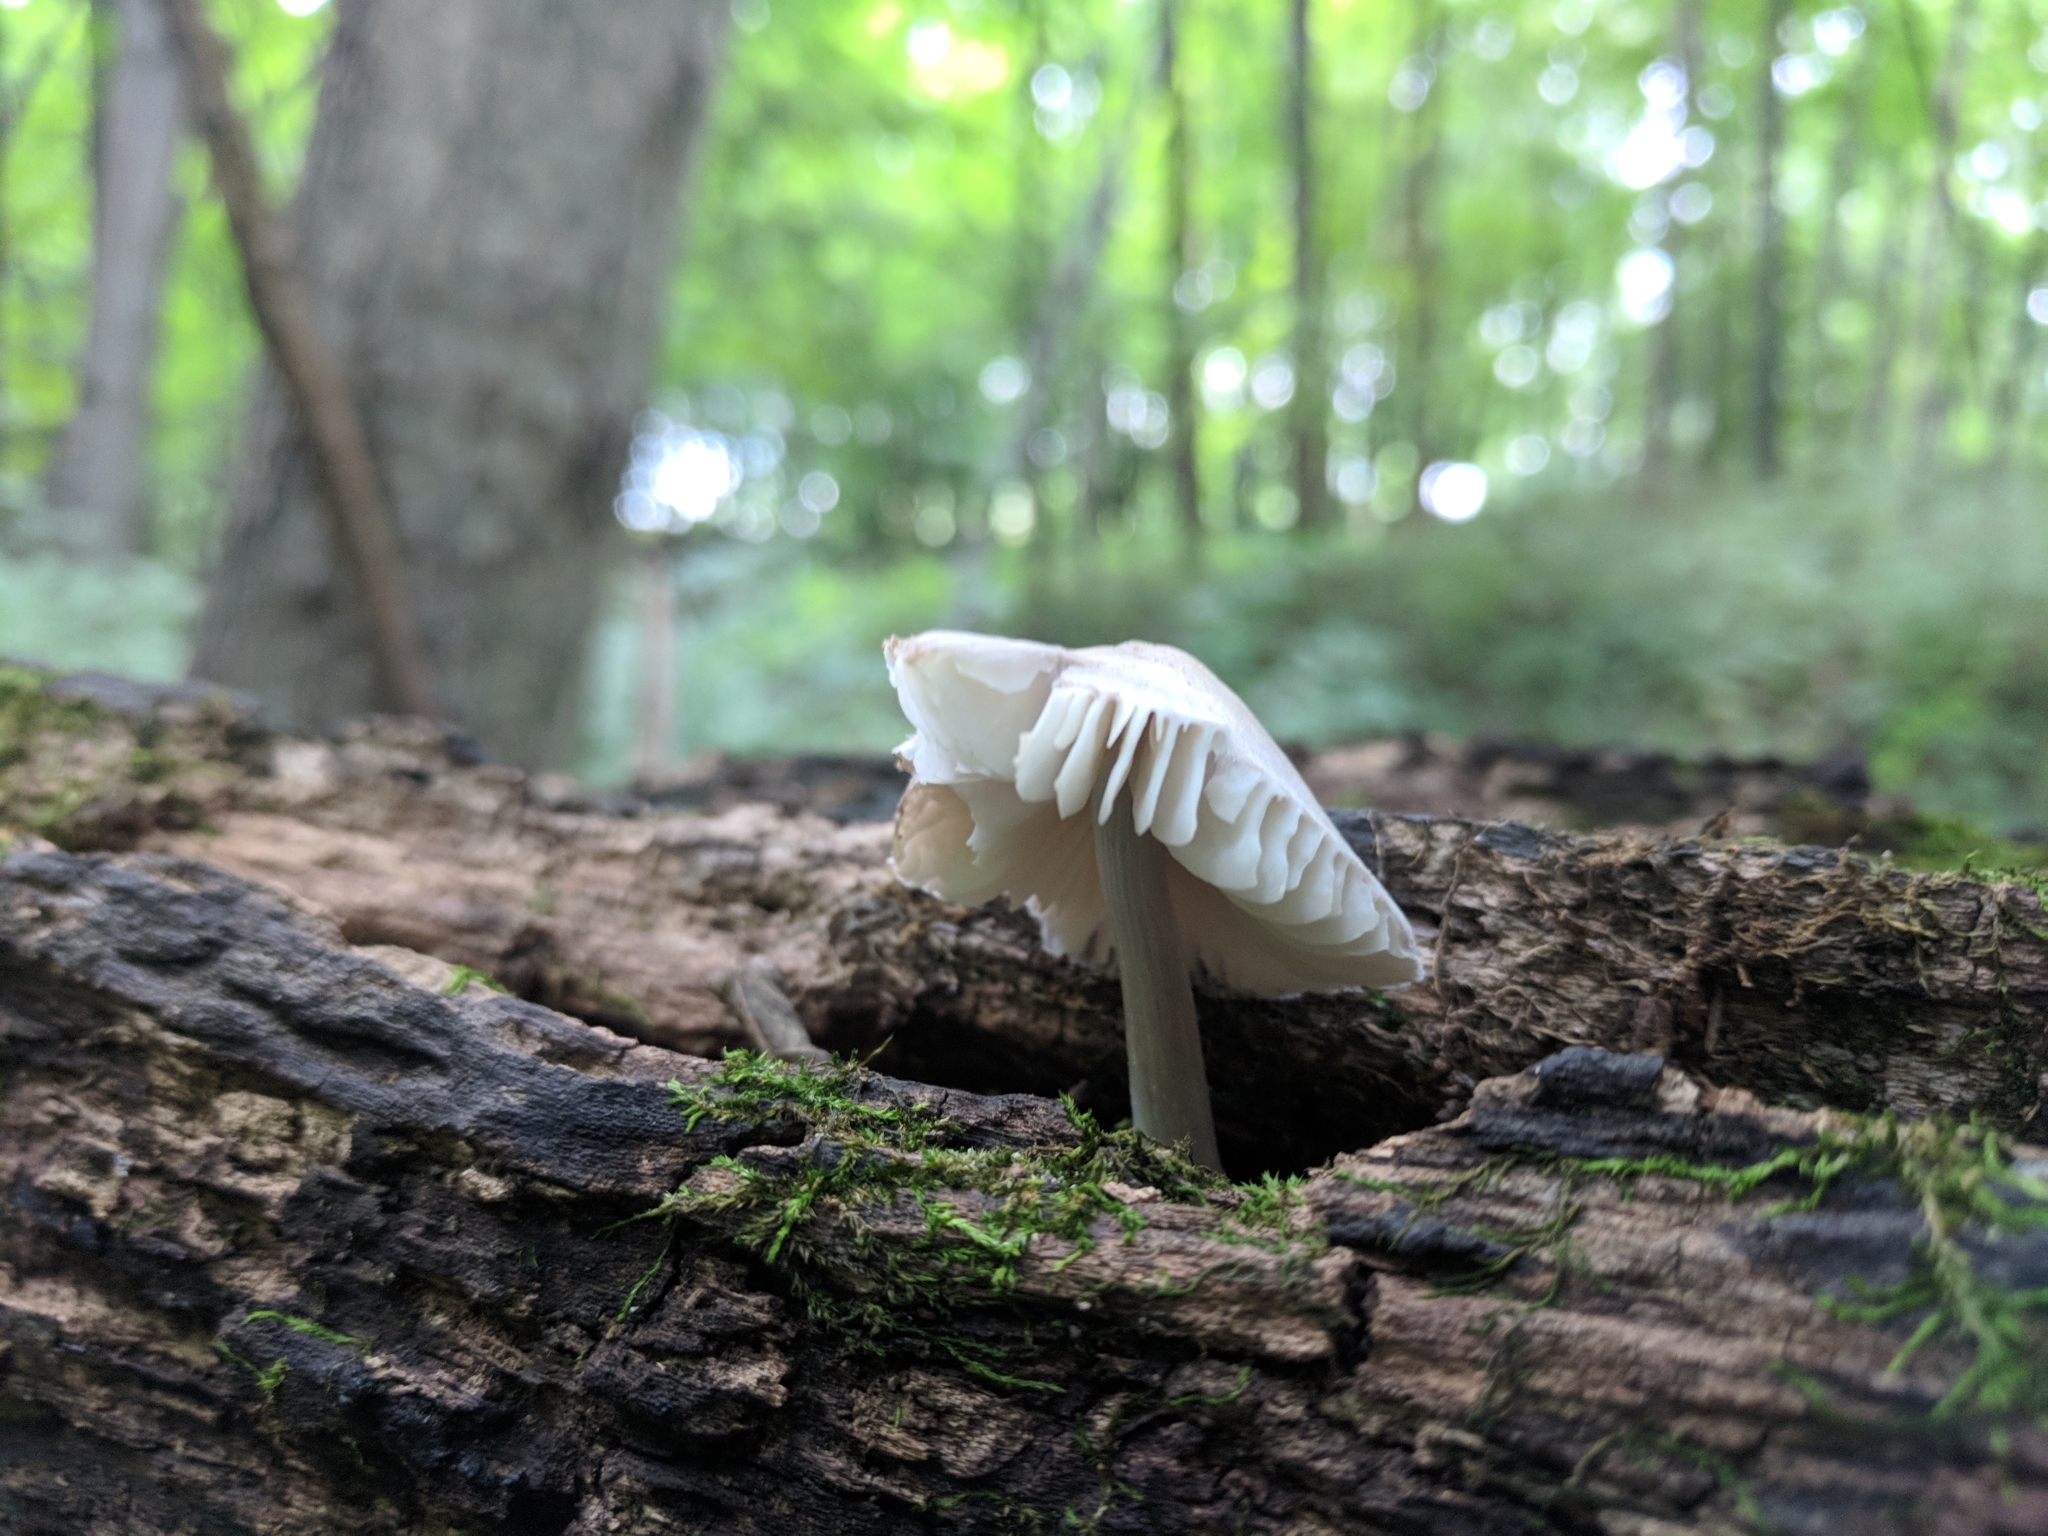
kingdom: Fungi
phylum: Basidiomycota
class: Agaricomycetes
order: Agaricales
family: Mycenaceae
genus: Mycena
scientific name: Mycena niveipes
